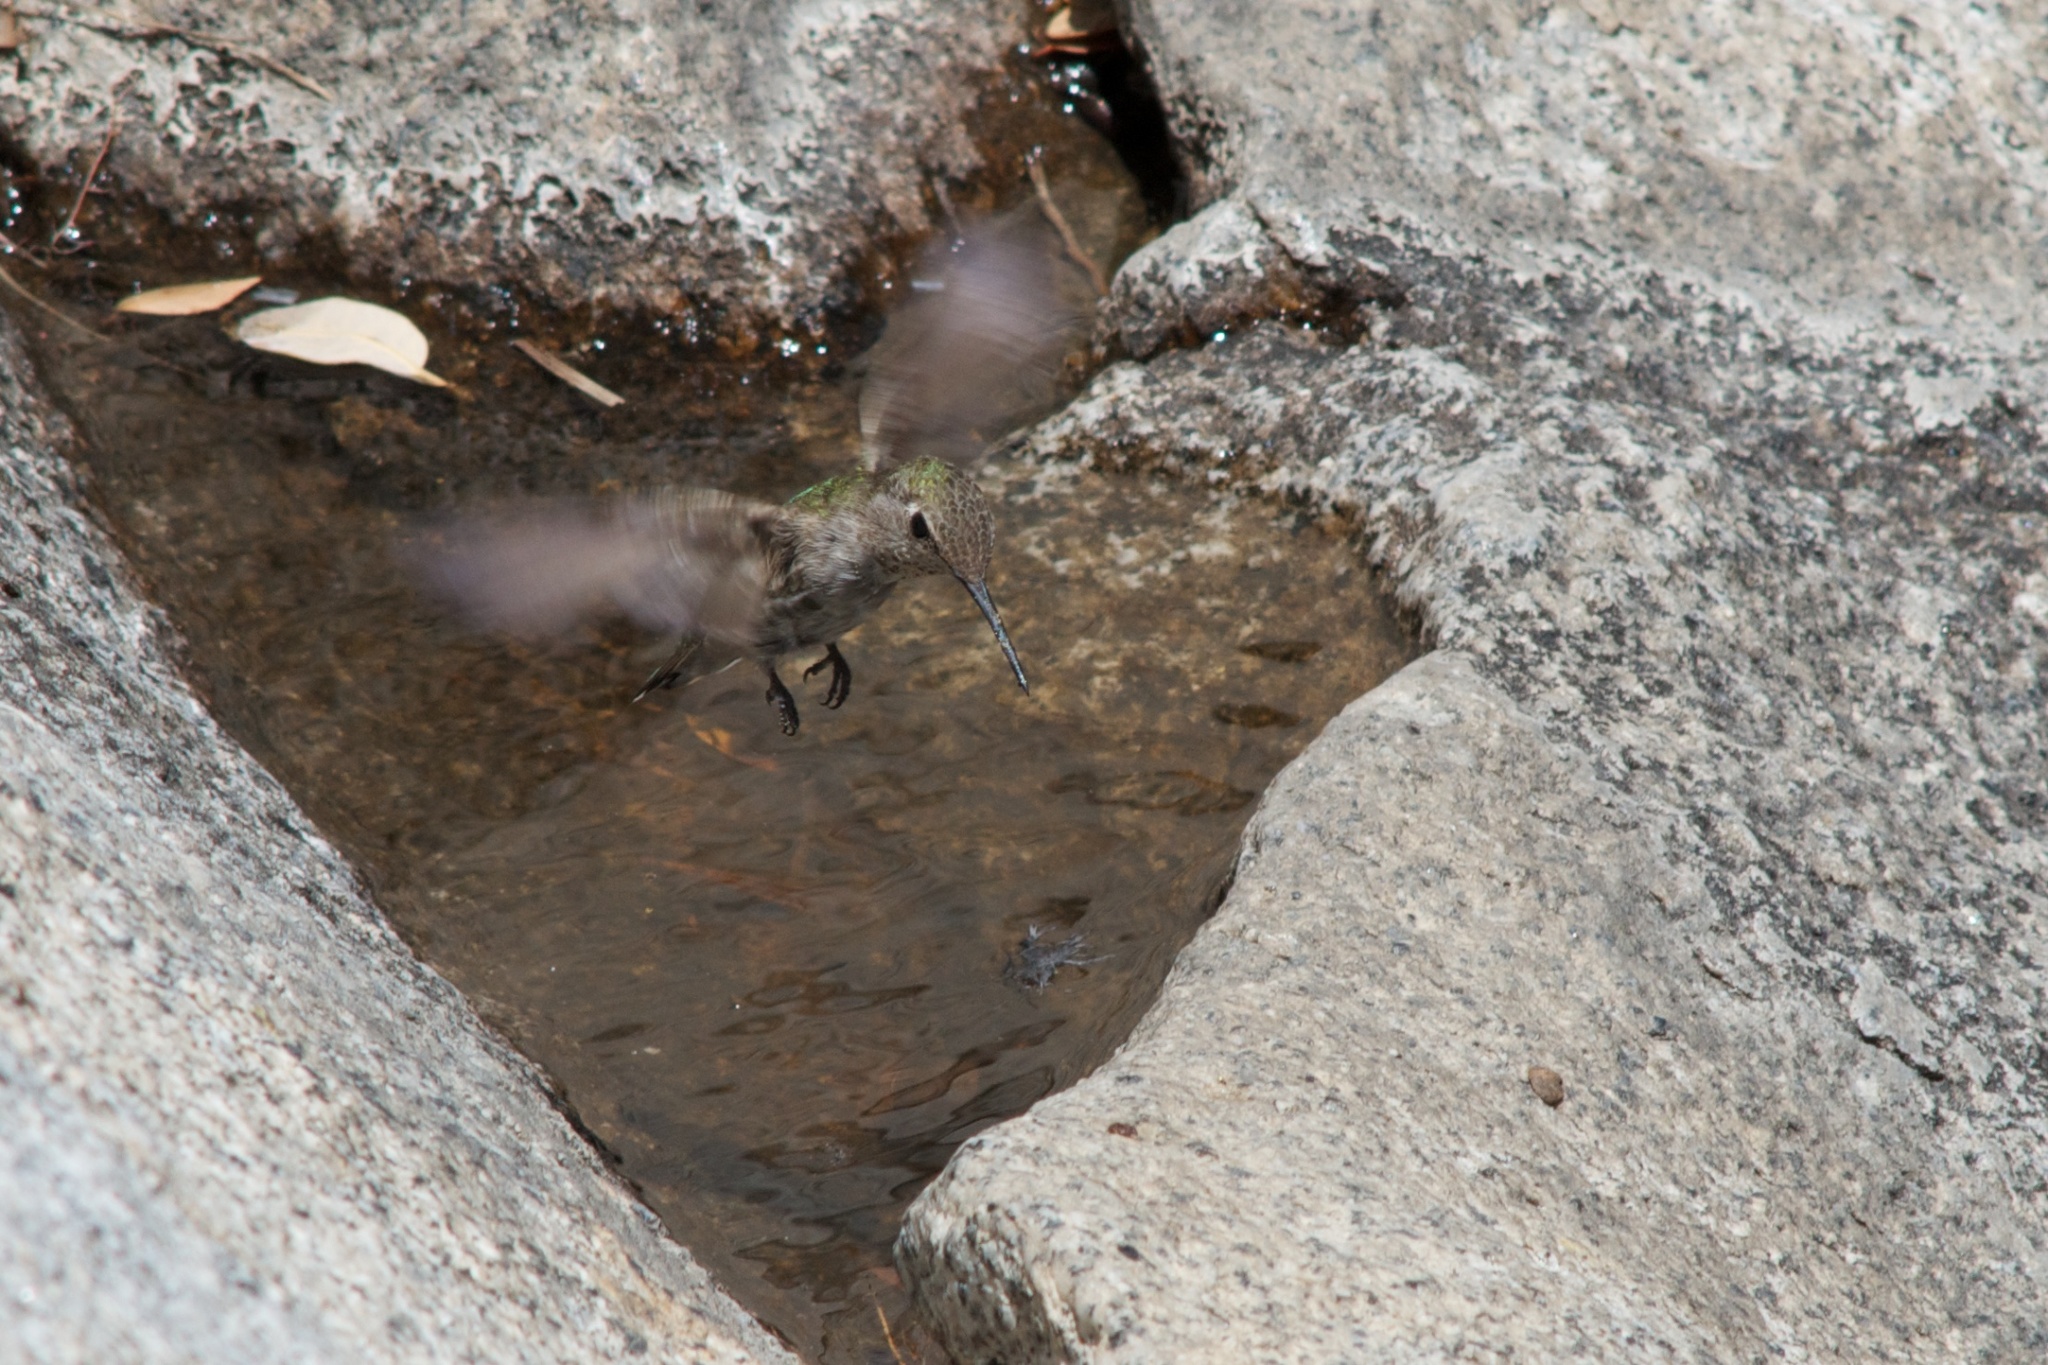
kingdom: Animalia
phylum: Chordata
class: Aves
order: Apodiformes
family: Trochilidae
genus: Calypte
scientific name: Calypte anna
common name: Anna's hummingbird
